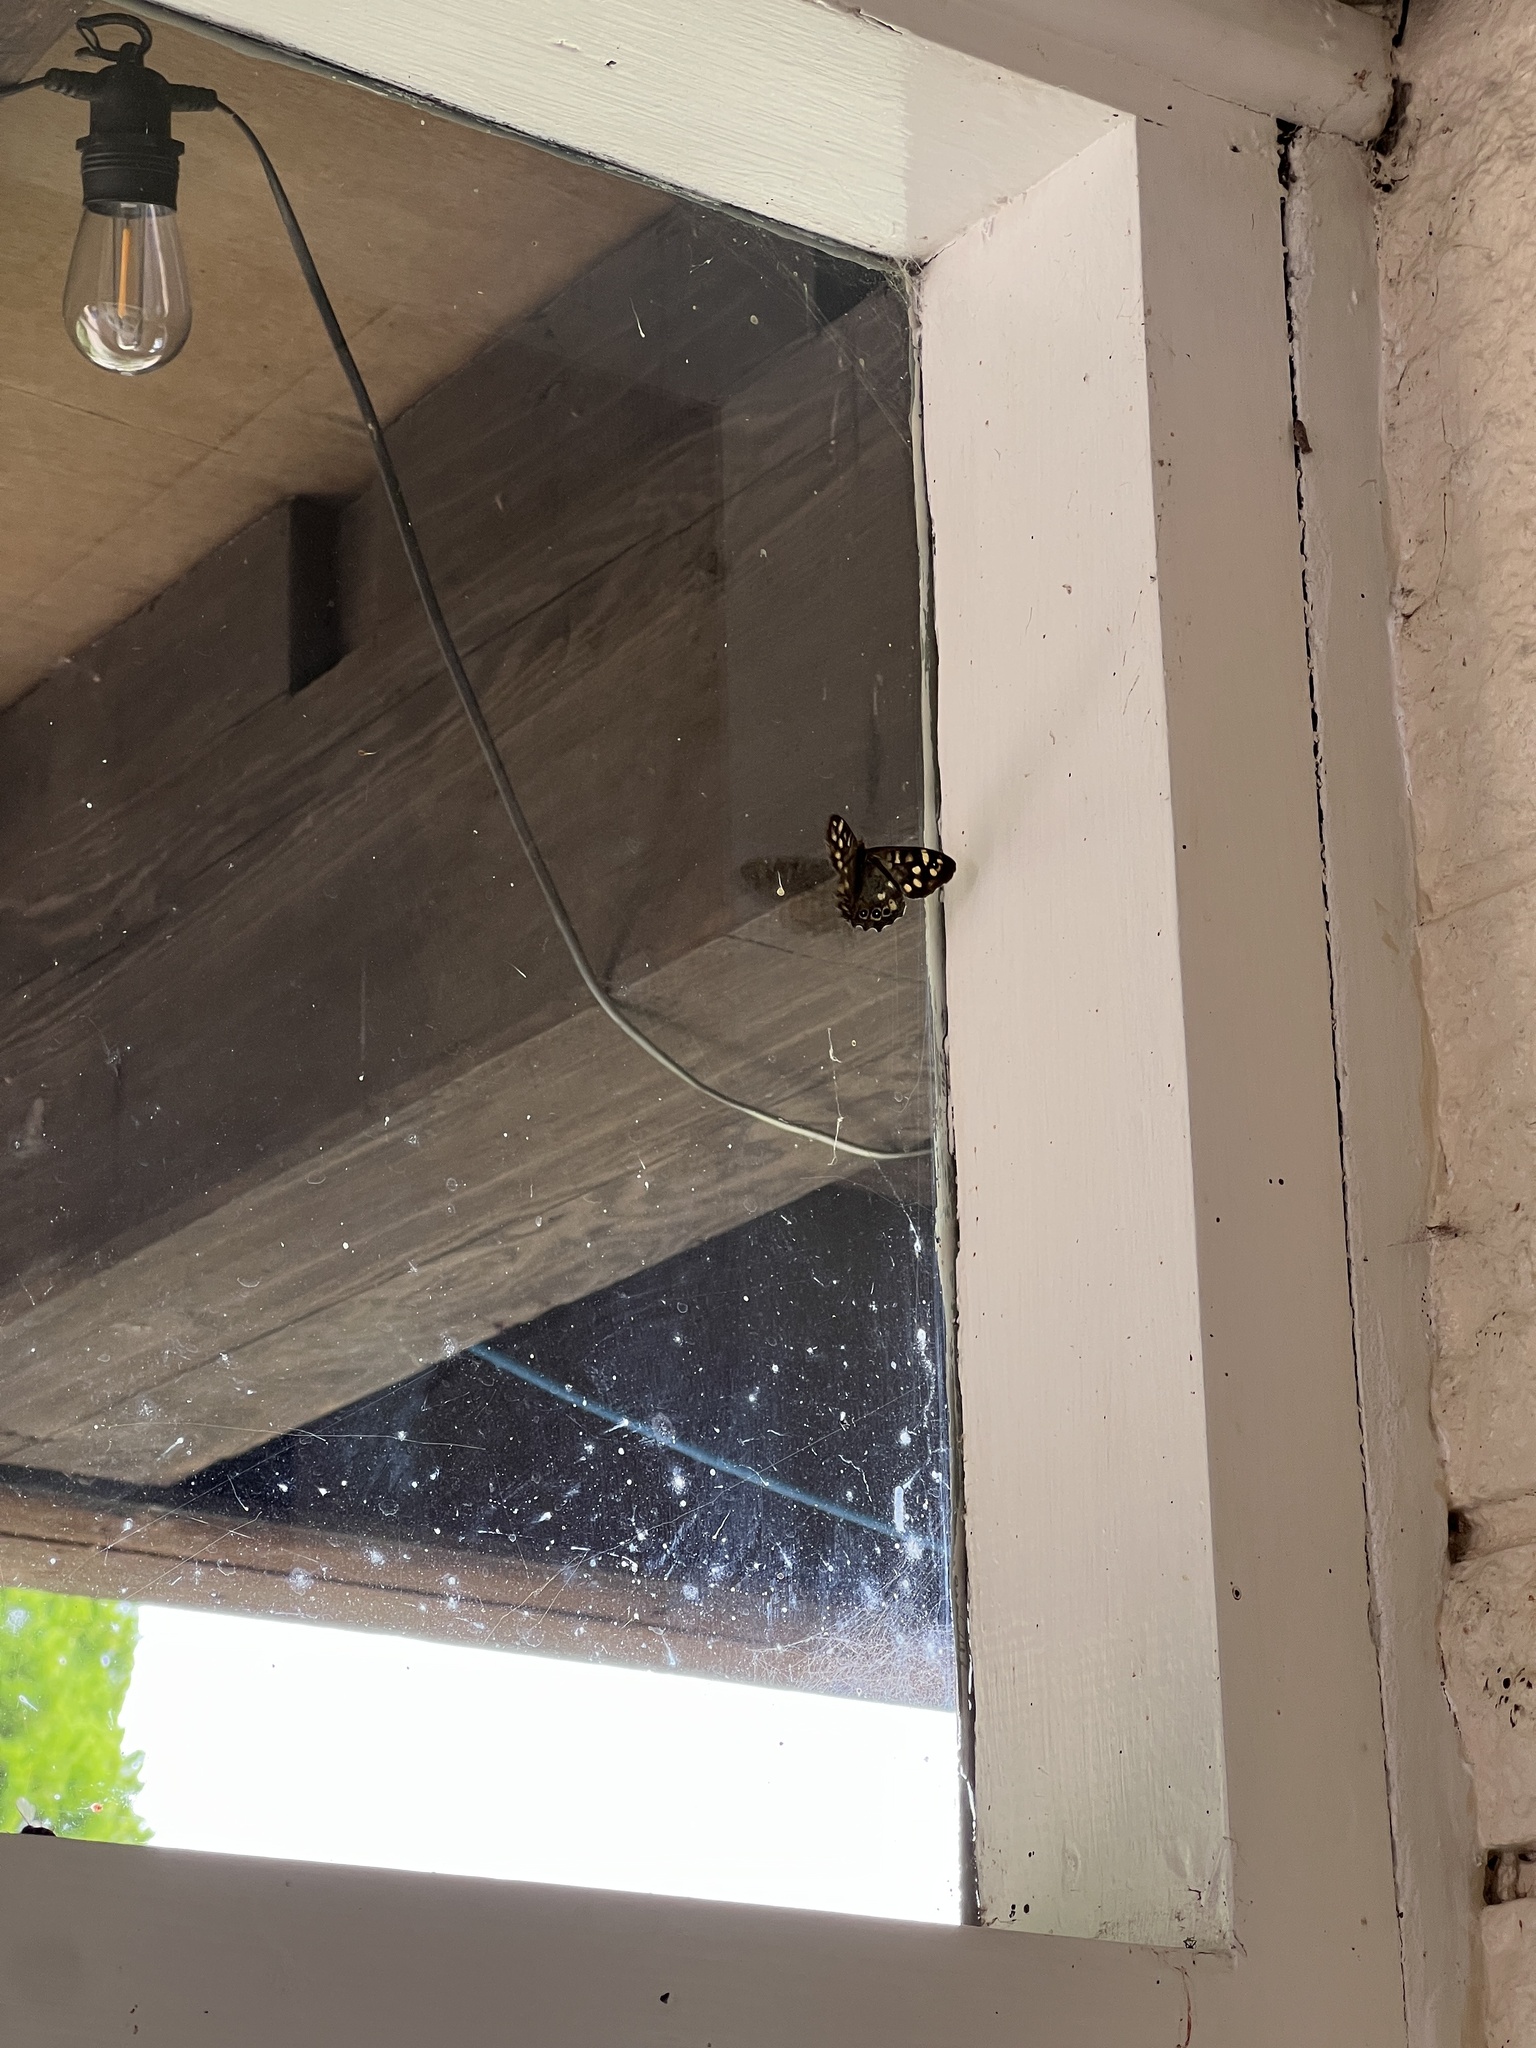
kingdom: Animalia
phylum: Arthropoda
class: Insecta
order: Lepidoptera
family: Nymphalidae
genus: Pararge
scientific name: Pararge aegeria
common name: Speckled wood
